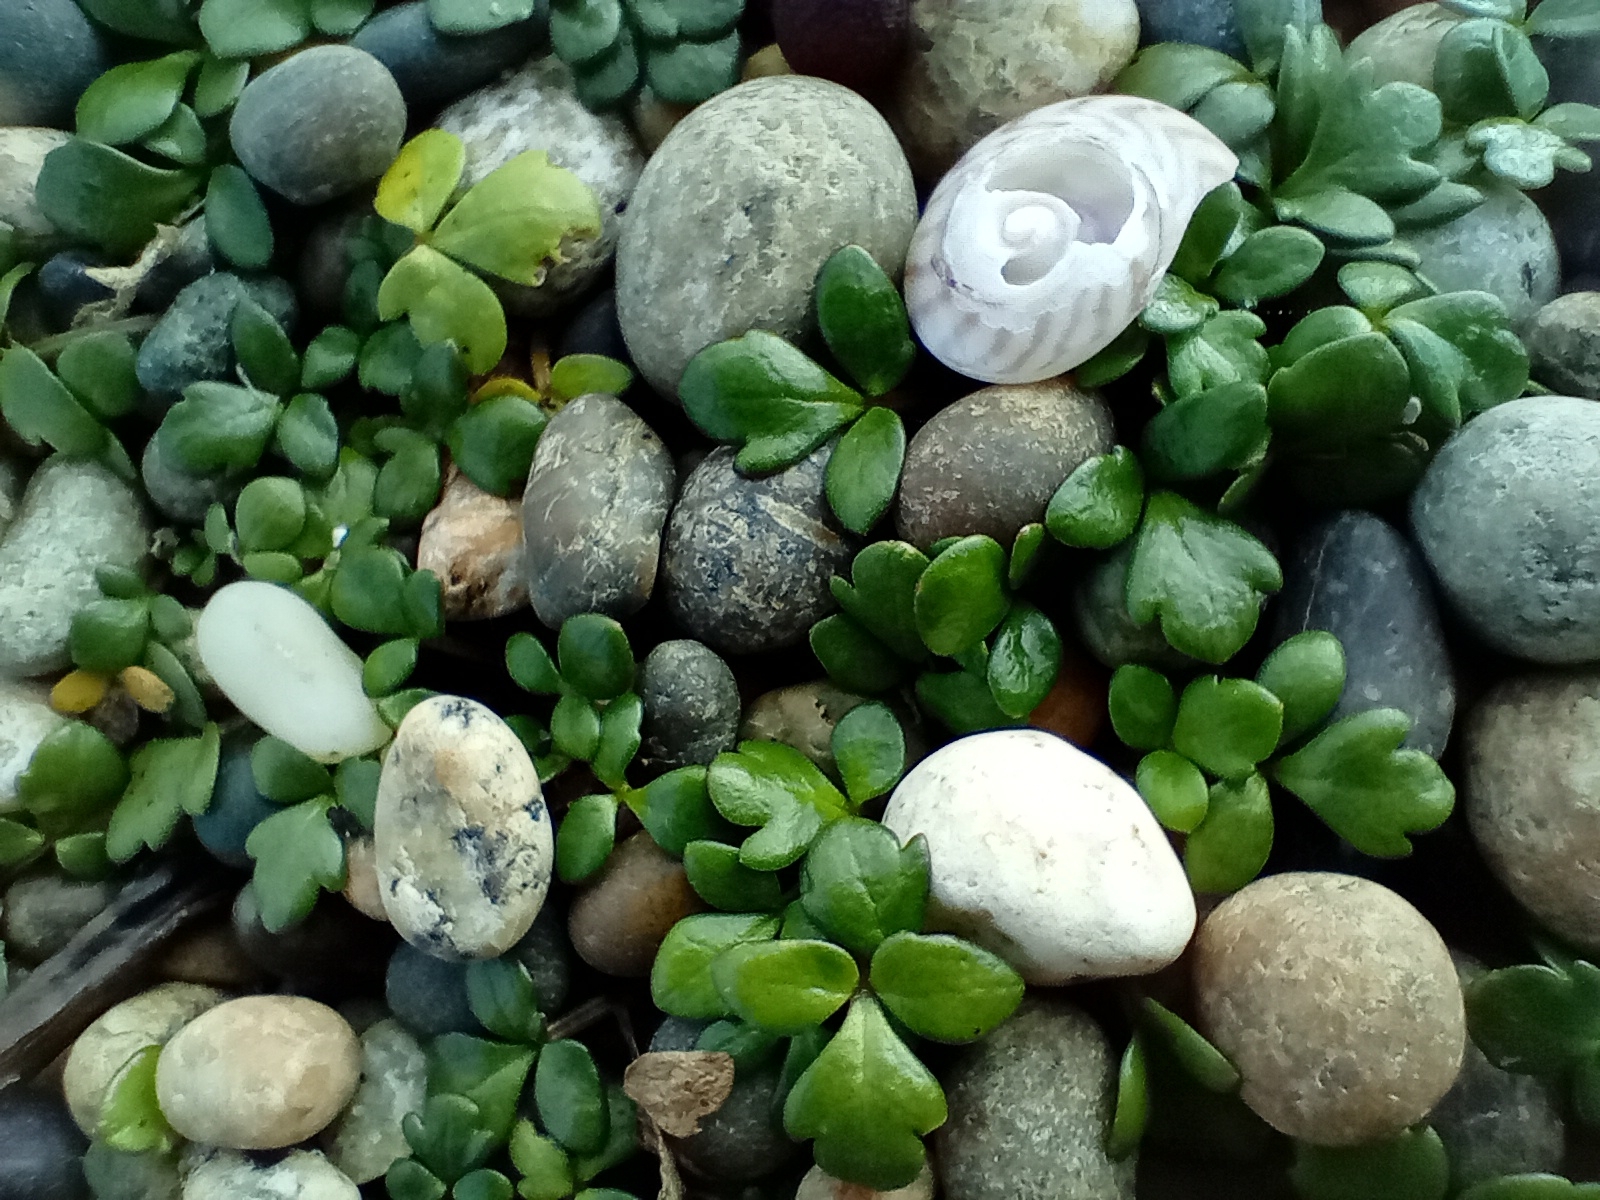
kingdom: Plantae
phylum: Tracheophyta
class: Magnoliopsida
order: Ranunculales
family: Ranunculaceae
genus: Ranunculus
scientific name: Ranunculus acaulis
